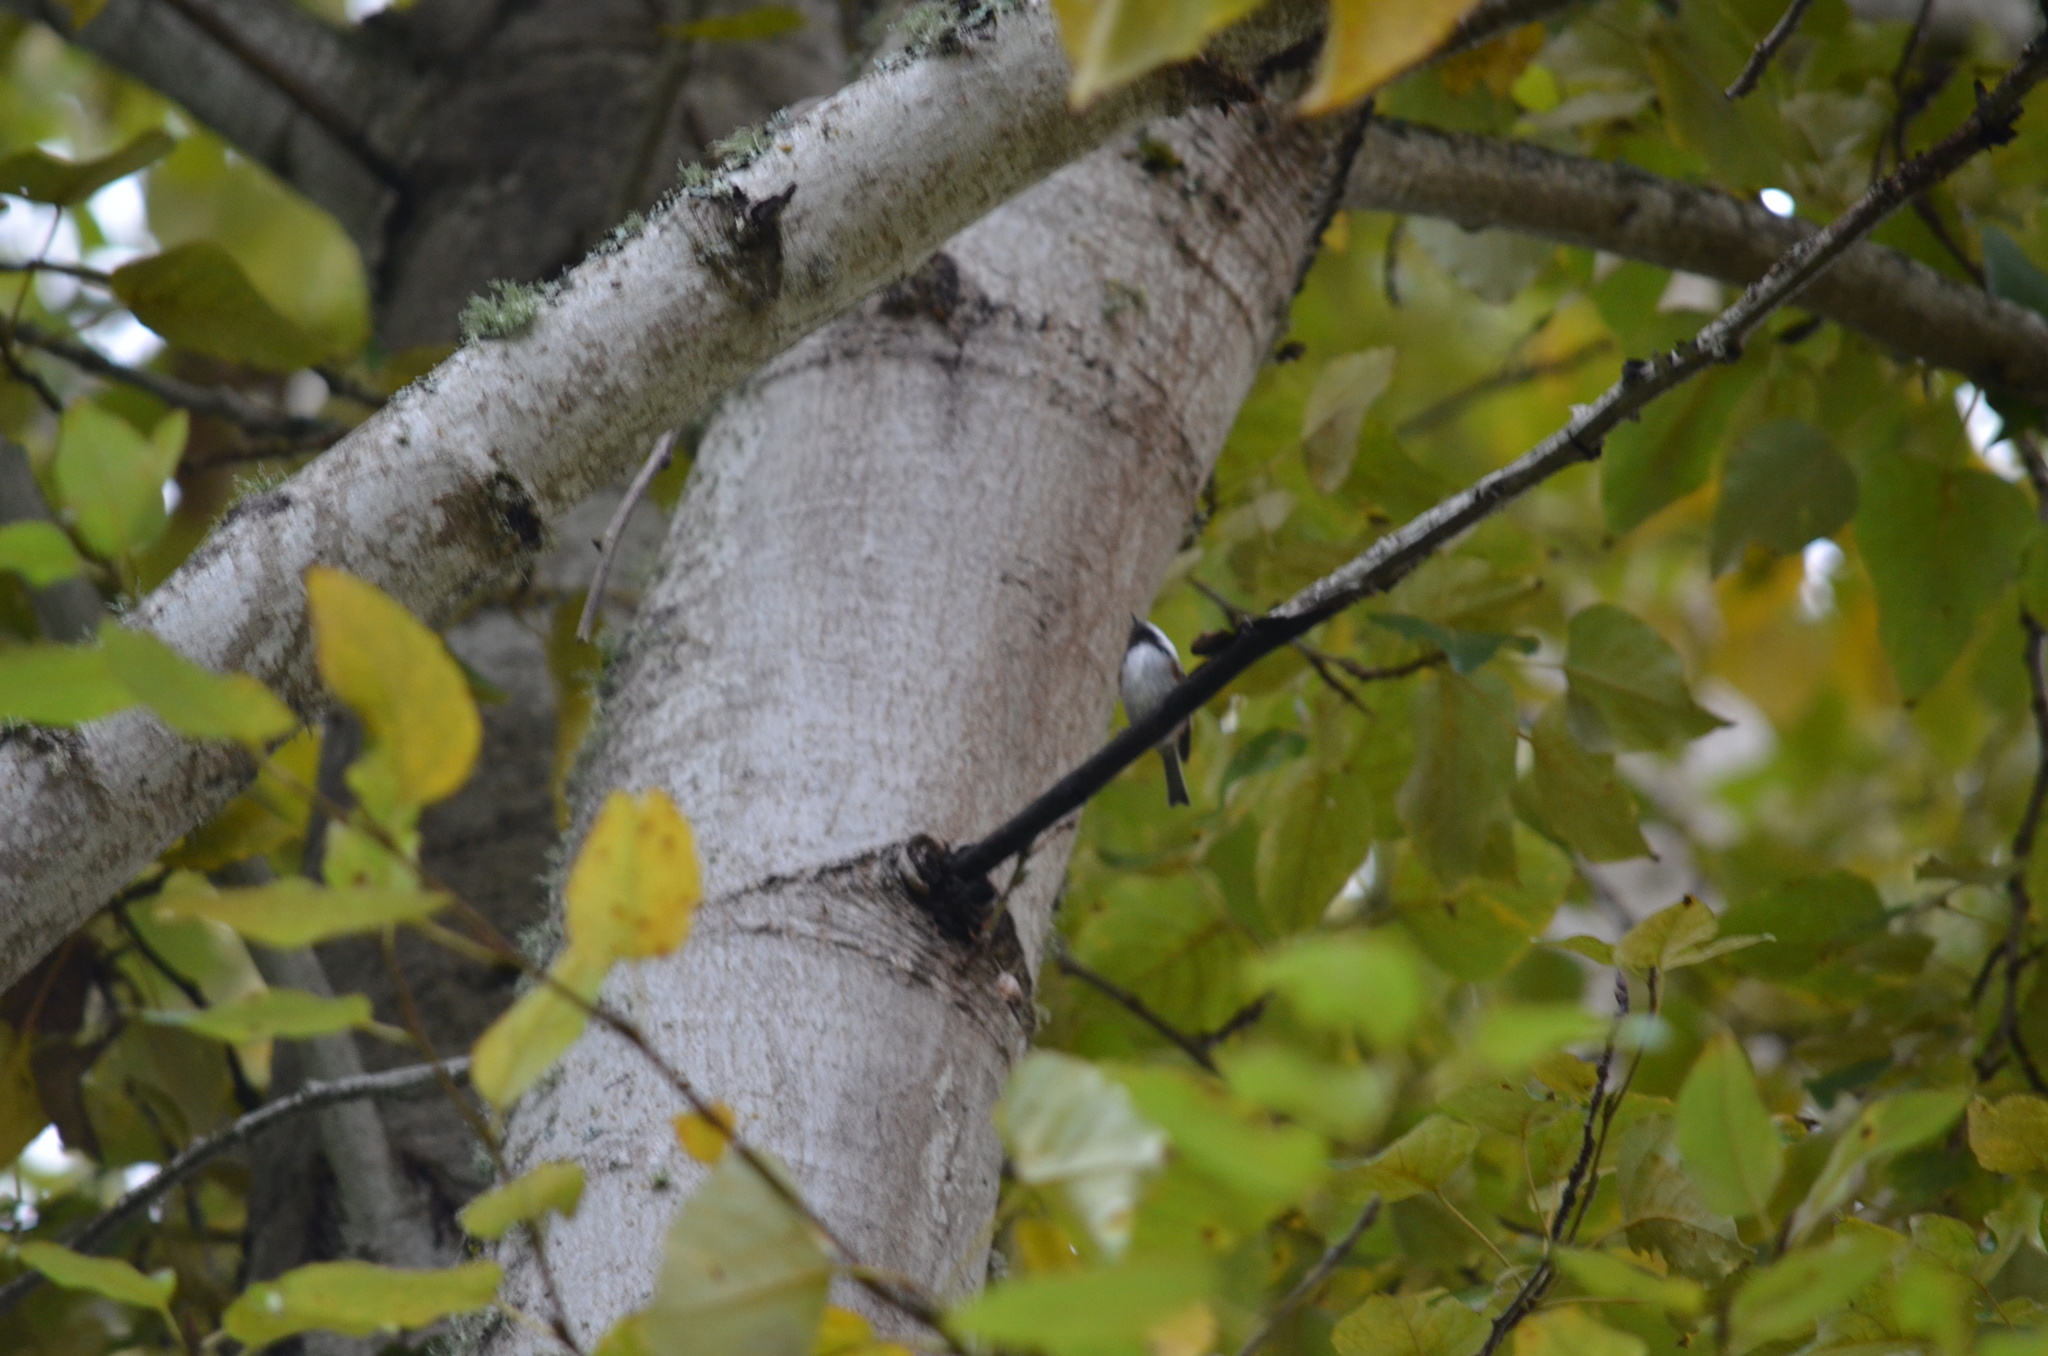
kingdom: Animalia
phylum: Chordata
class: Aves
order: Passeriformes
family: Paridae
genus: Poecile
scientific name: Poecile rufescens
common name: Chestnut-backed chickadee
